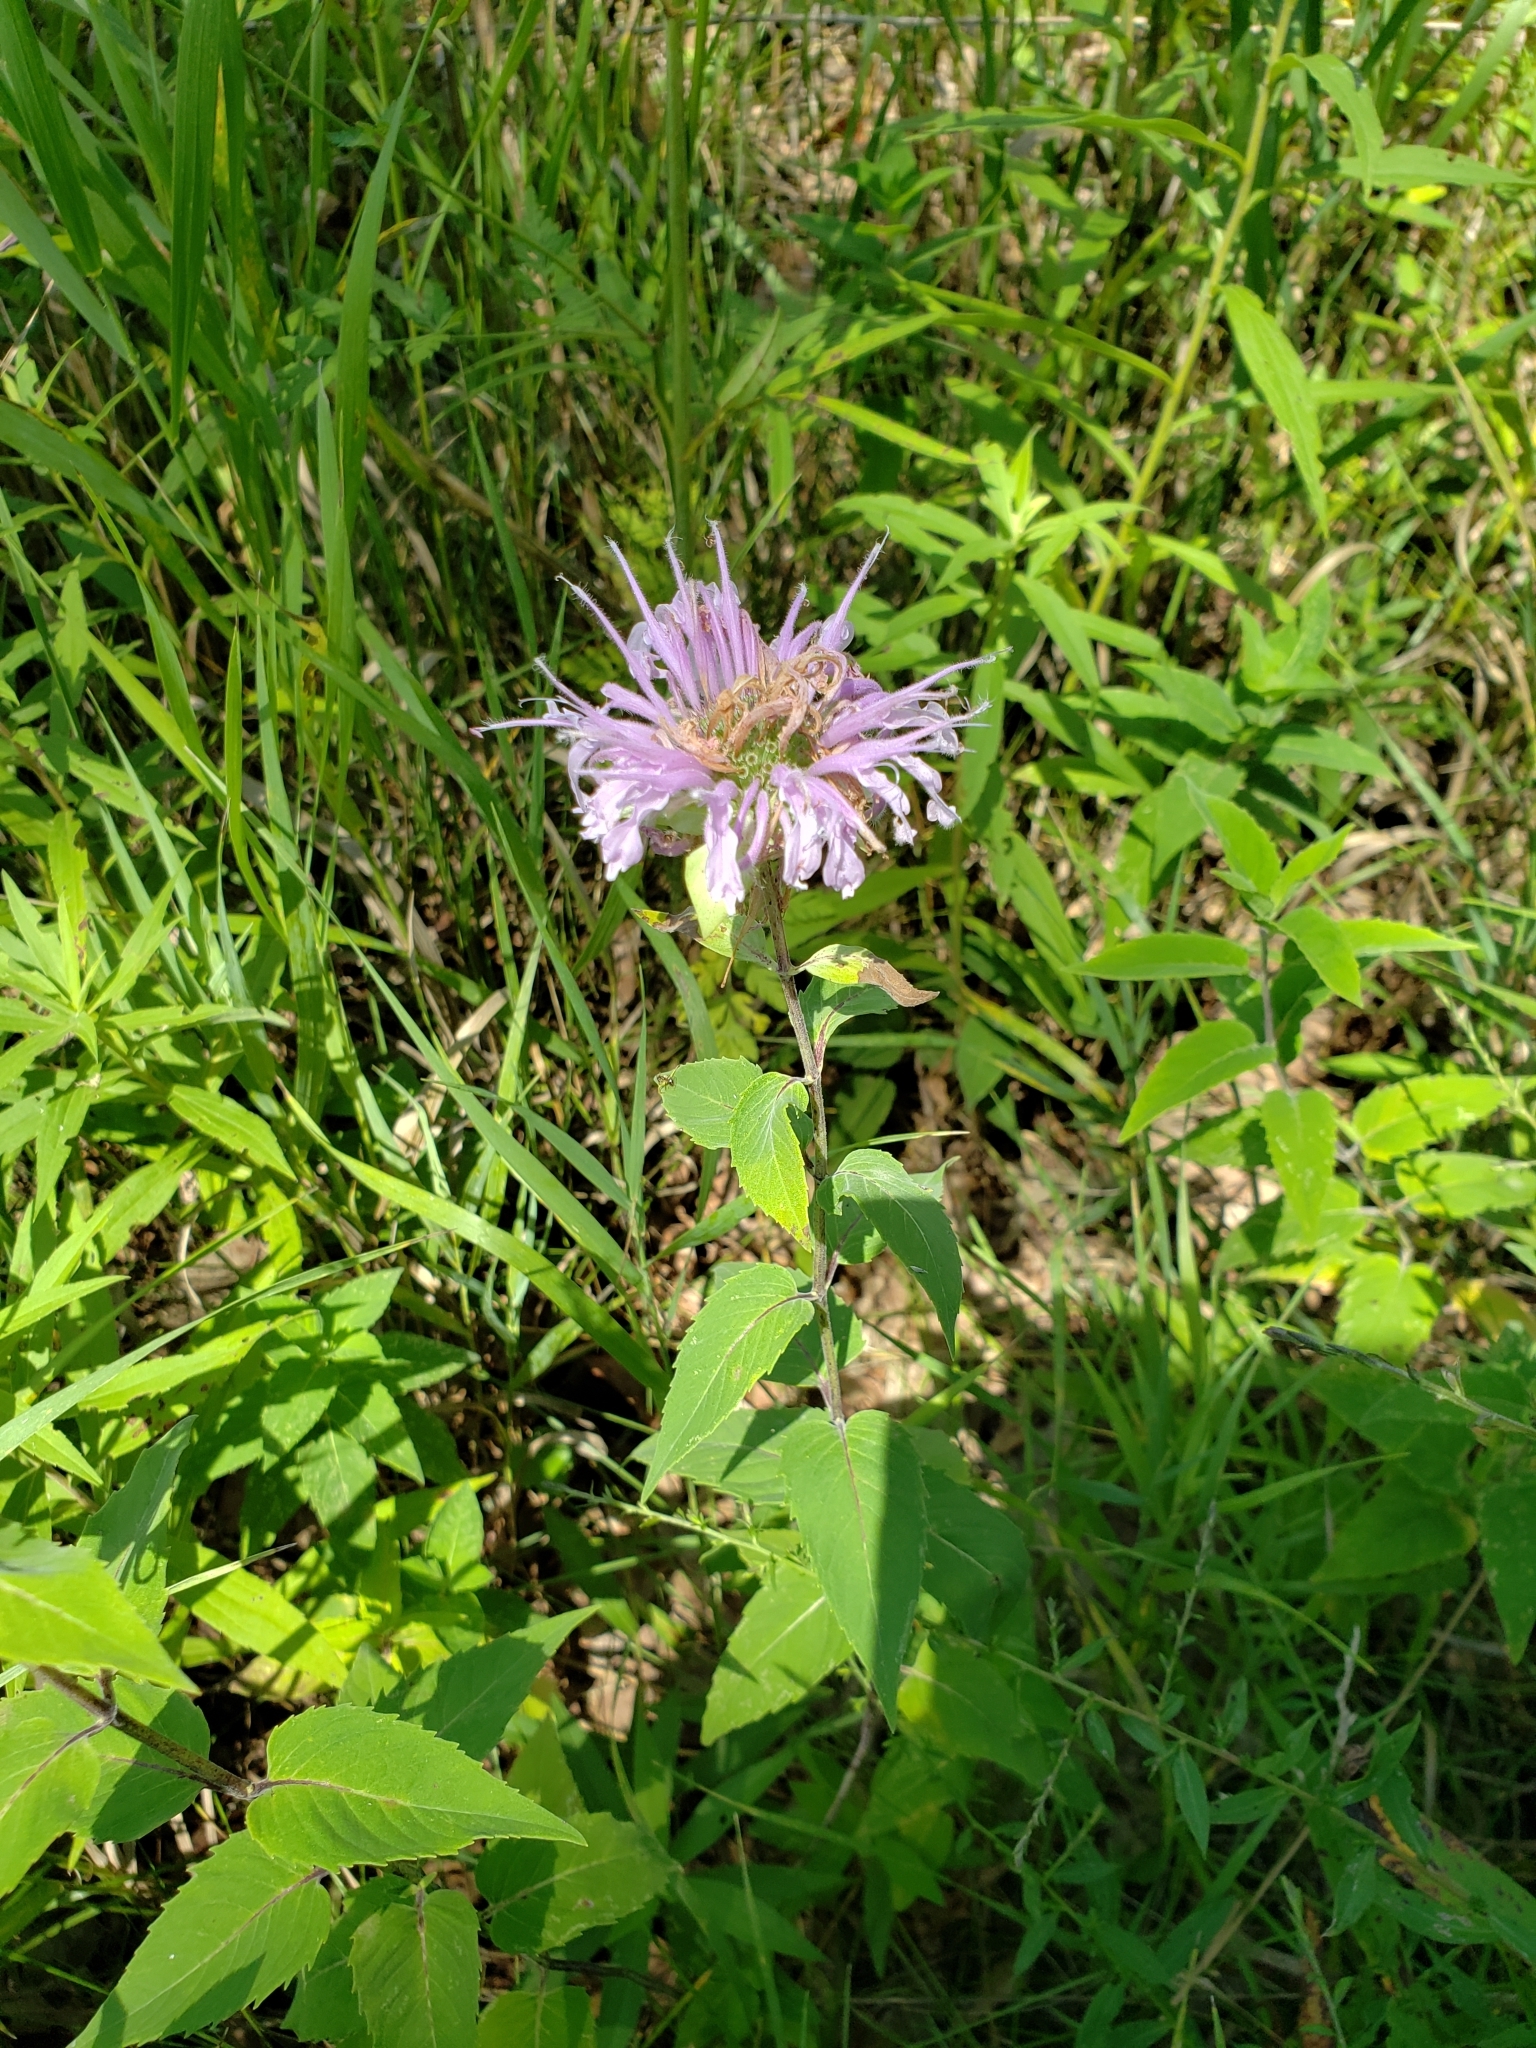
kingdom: Plantae
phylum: Tracheophyta
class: Magnoliopsida
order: Lamiales
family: Lamiaceae
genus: Monarda
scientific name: Monarda fistulosa
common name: Purple beebalm
